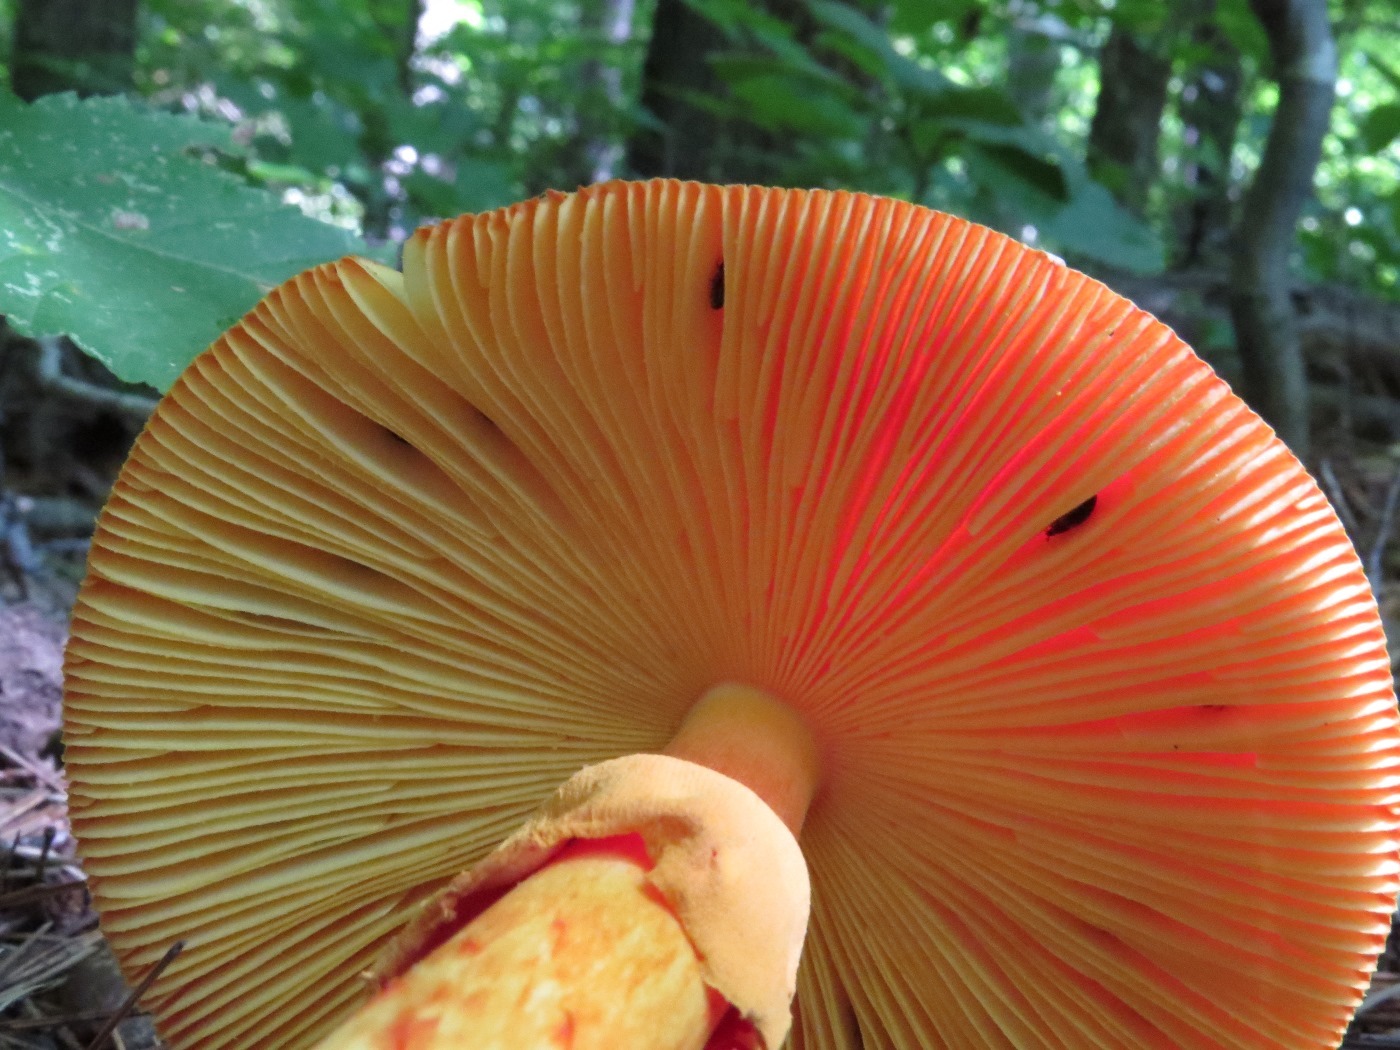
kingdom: Fungi
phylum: Basidiomycota
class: Agaricomycetes
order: Agaricales
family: Amanitaceae
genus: Amanita
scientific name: Amanita jacksonii
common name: Jackson's slender caesar
